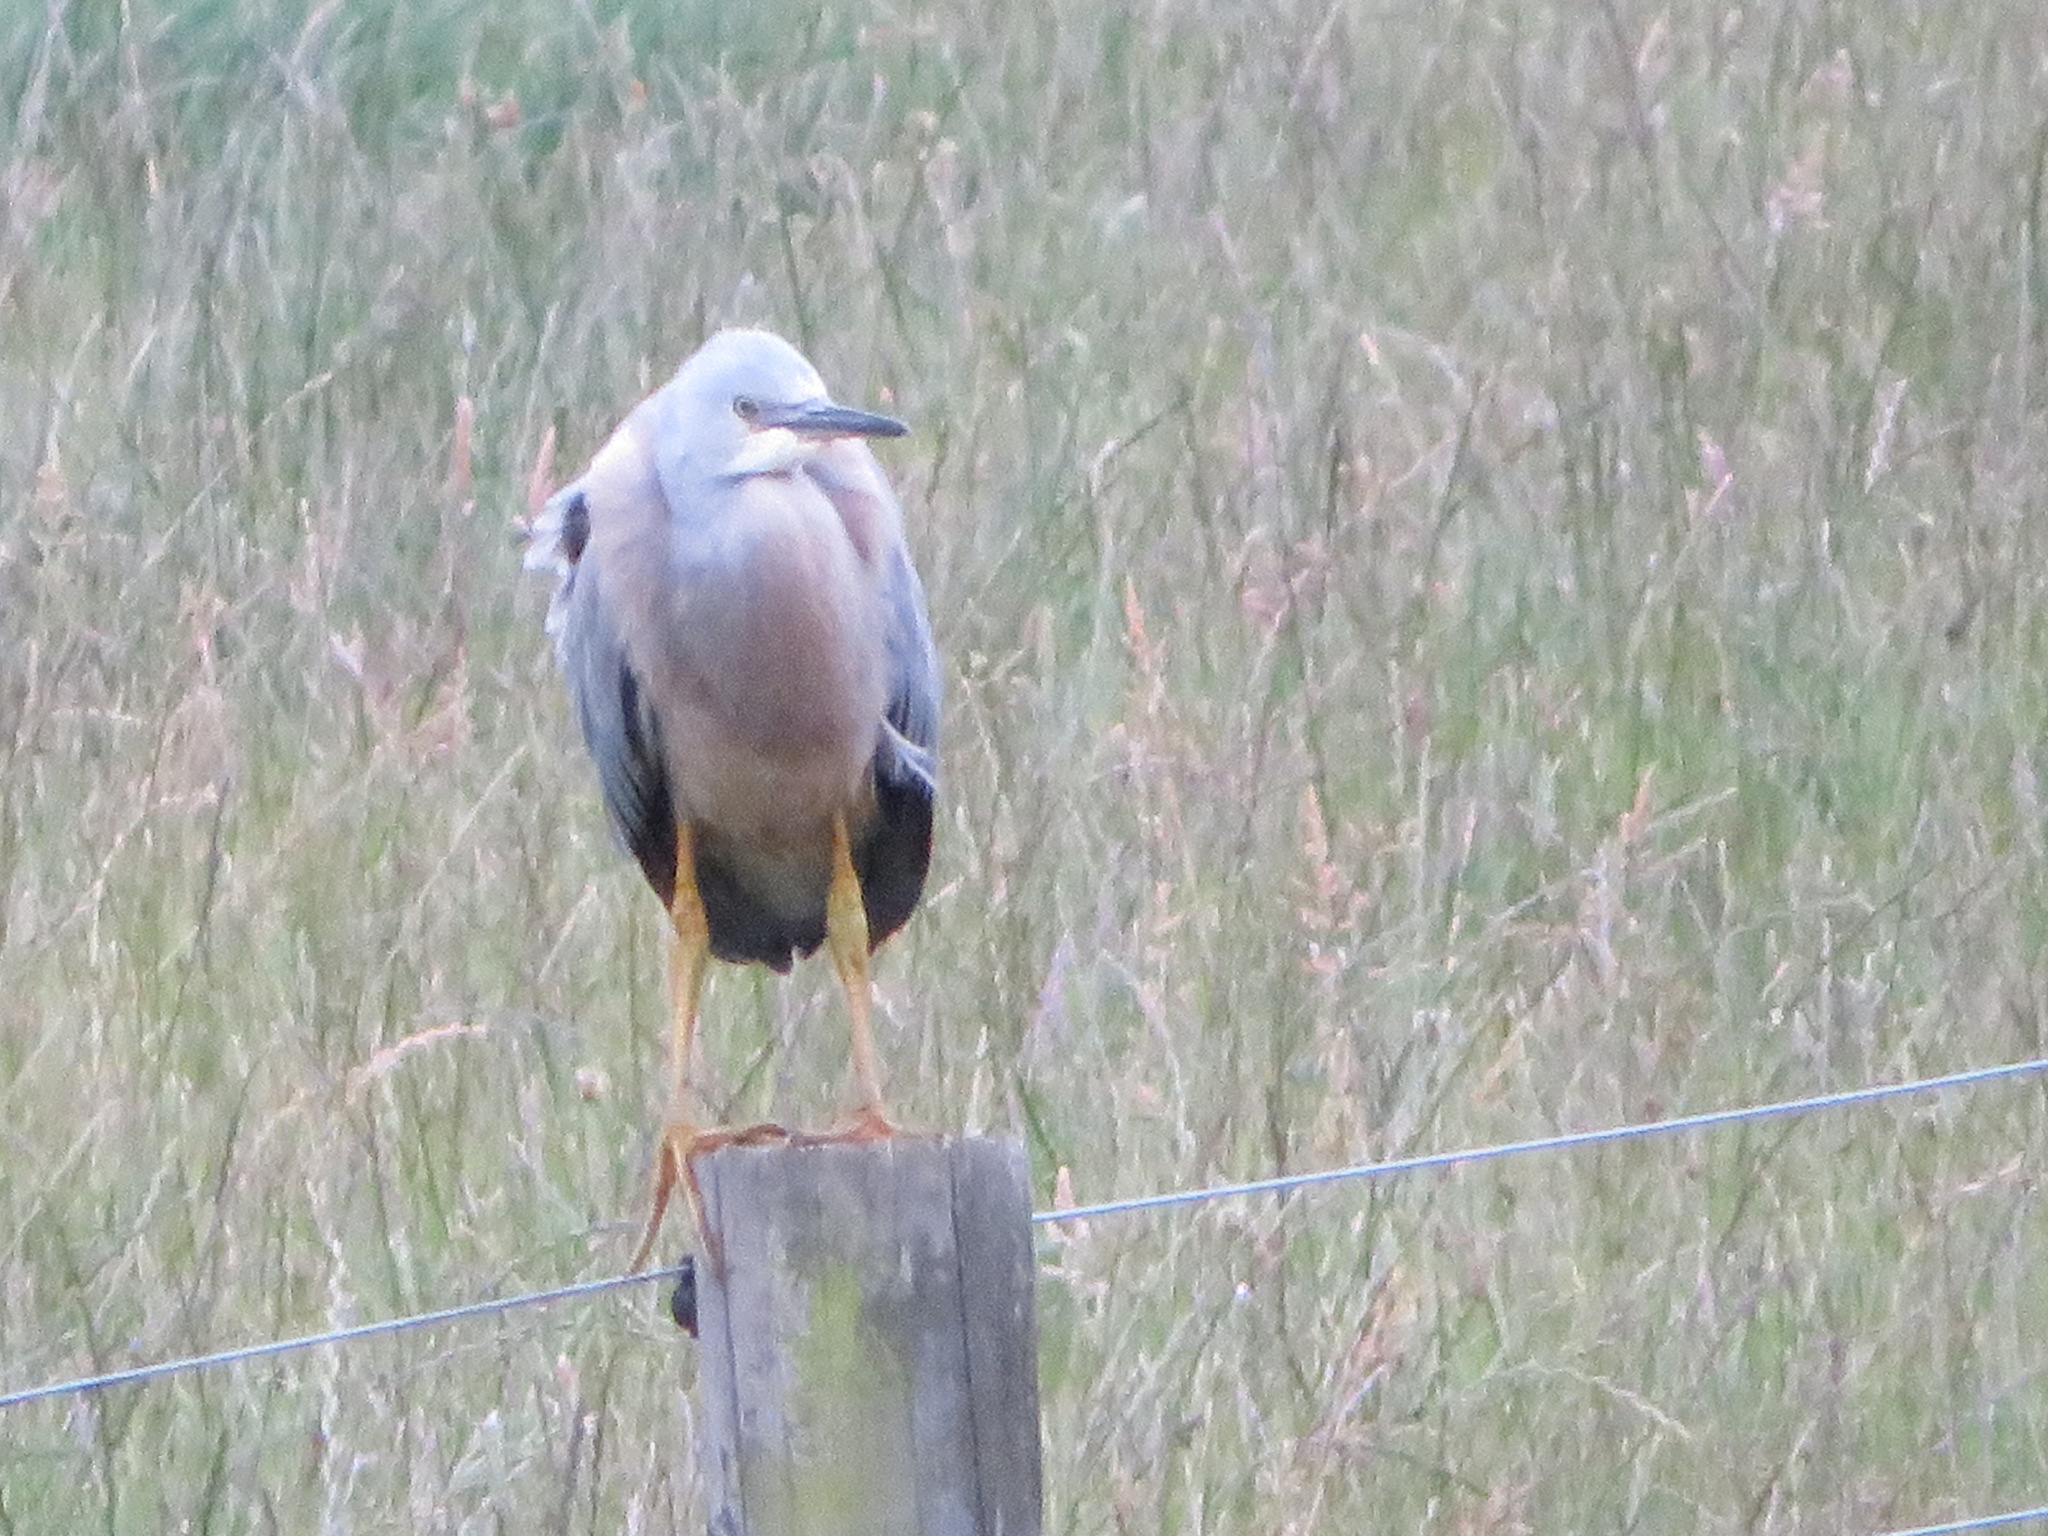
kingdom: Animalia
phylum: Chordata
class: Aves
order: Pelecaniformes
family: Ardeidae
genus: Egretta
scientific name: Egretta novaehollandiae
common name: White-faced heron
